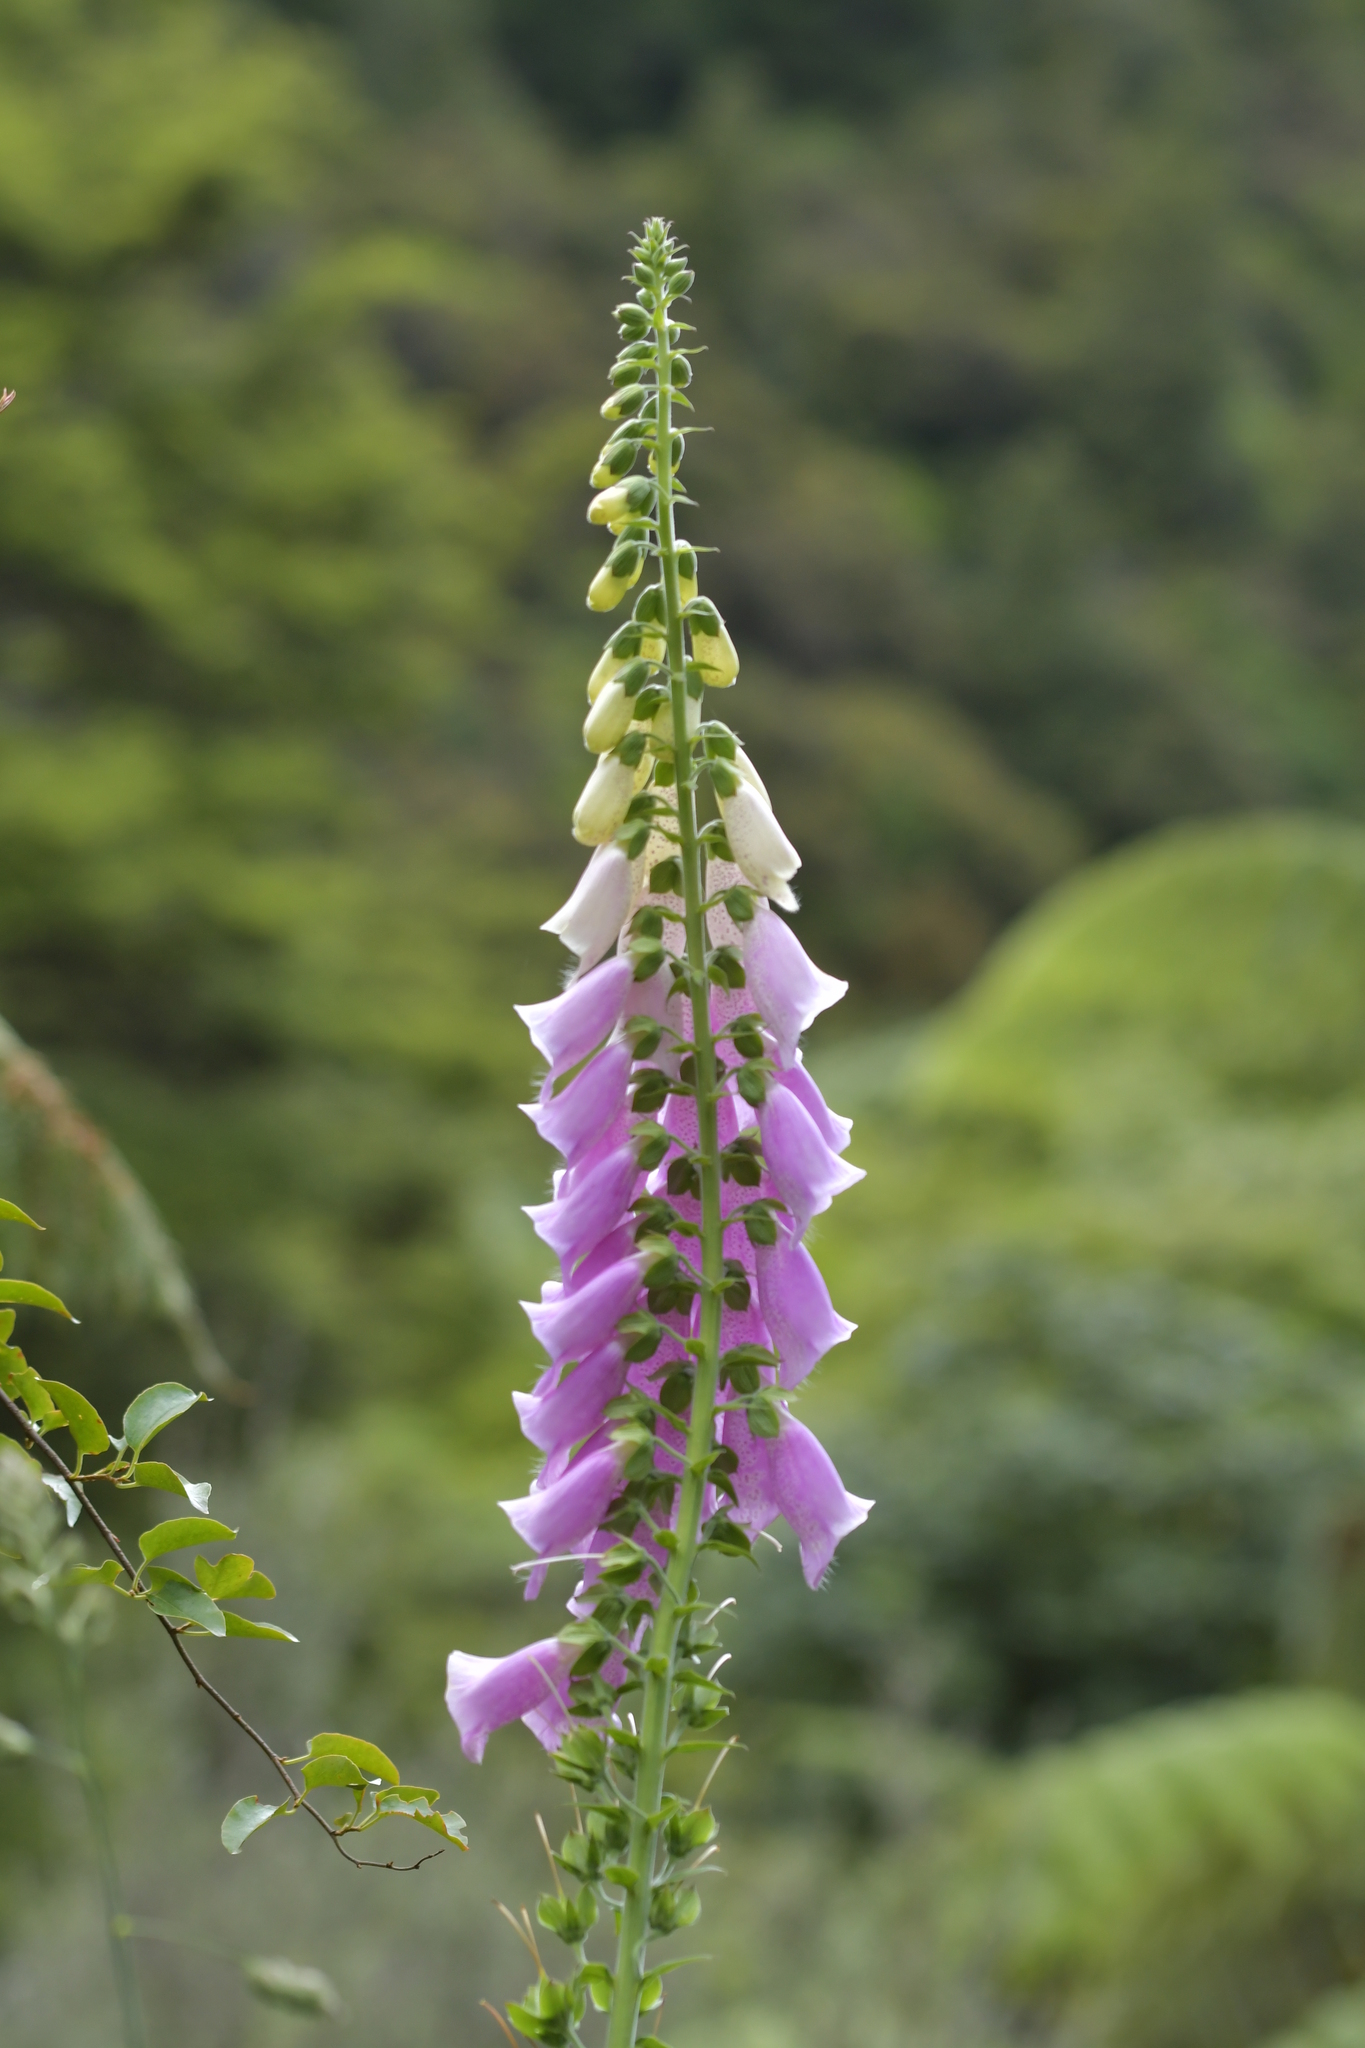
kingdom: Plantae
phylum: Tracheophyta
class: Magnoliopsida
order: Lamiales
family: Plantaginaceae
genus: Digitalis
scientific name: Digitalis purpurea
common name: Foxglove
